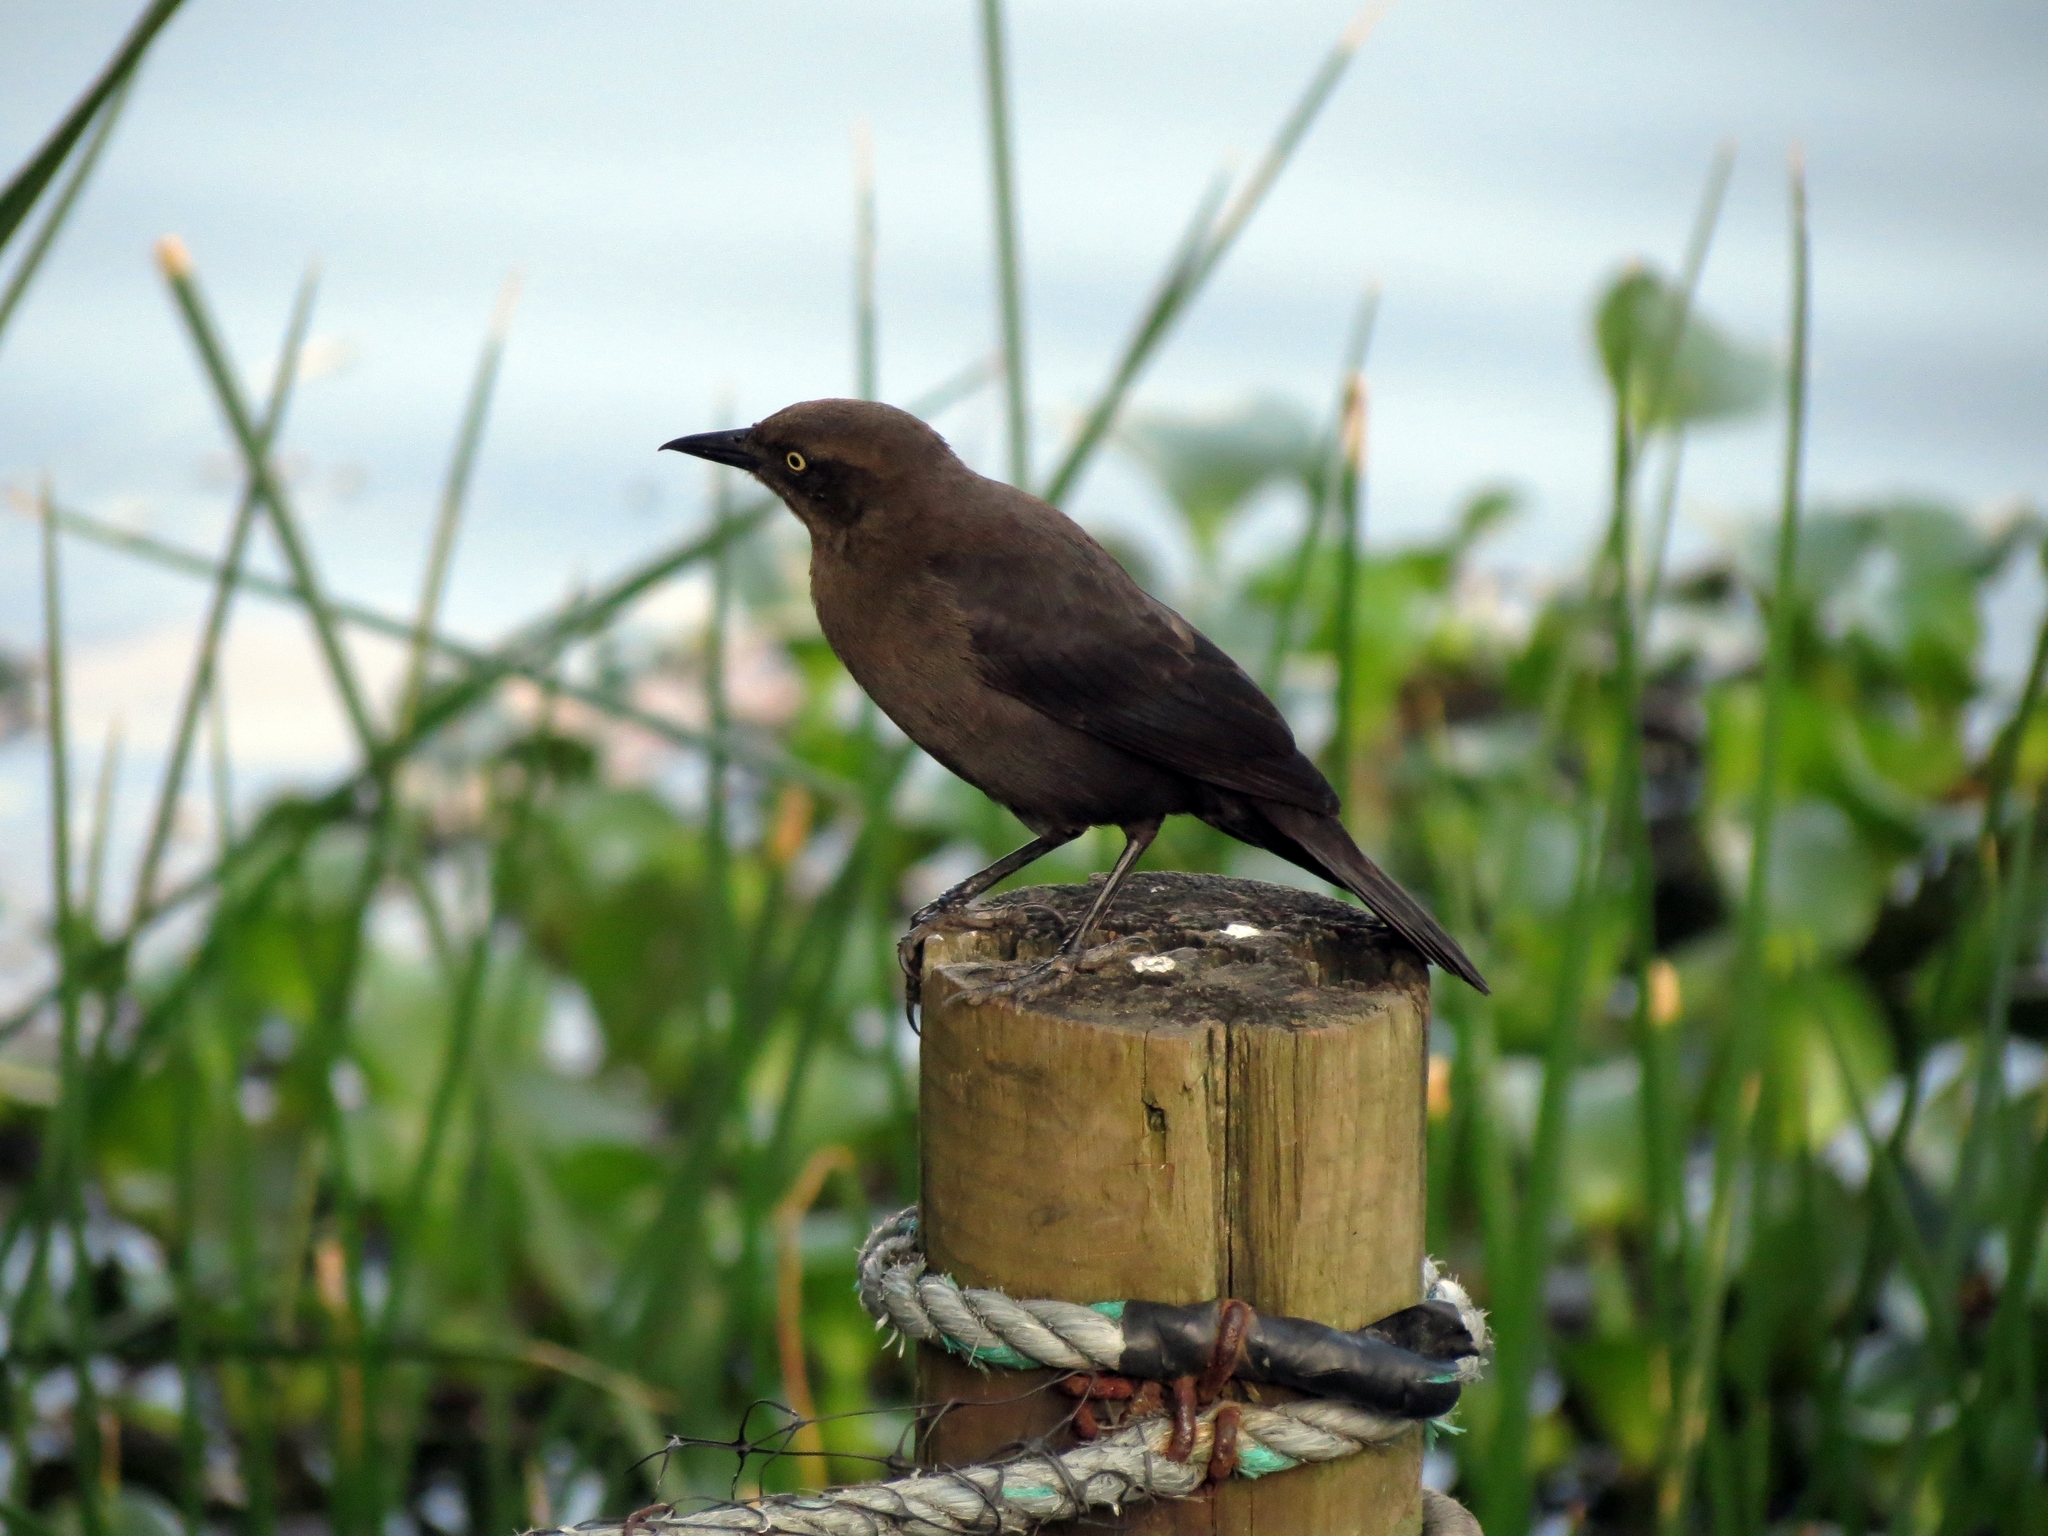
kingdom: Animalia
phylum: Chordata
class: Aves
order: Passeriformes
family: Icteridae
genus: Quiscalus
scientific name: Quiscalus lugubris
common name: Carib grackle
